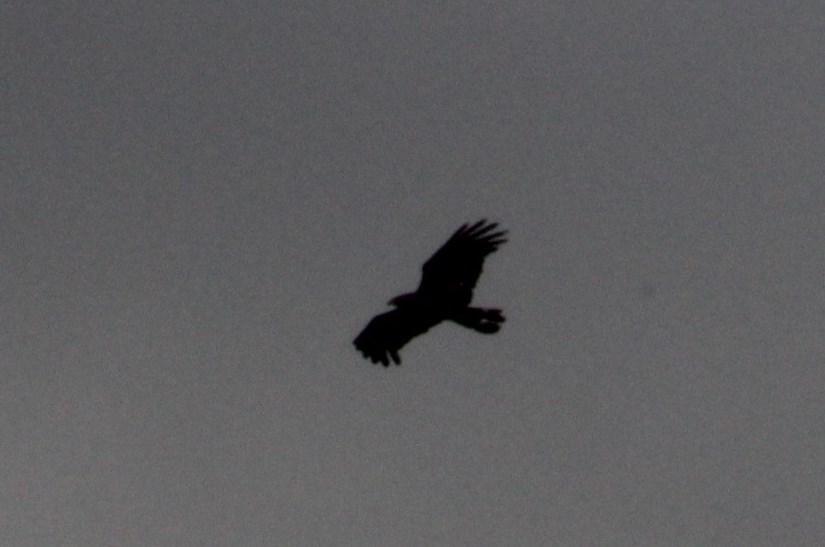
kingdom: Animalia
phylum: Chordata
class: Aves
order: Accipitriformes
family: Accipitridae
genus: Polyboroides
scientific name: Polyboroides typus
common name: African harrier-hawk
